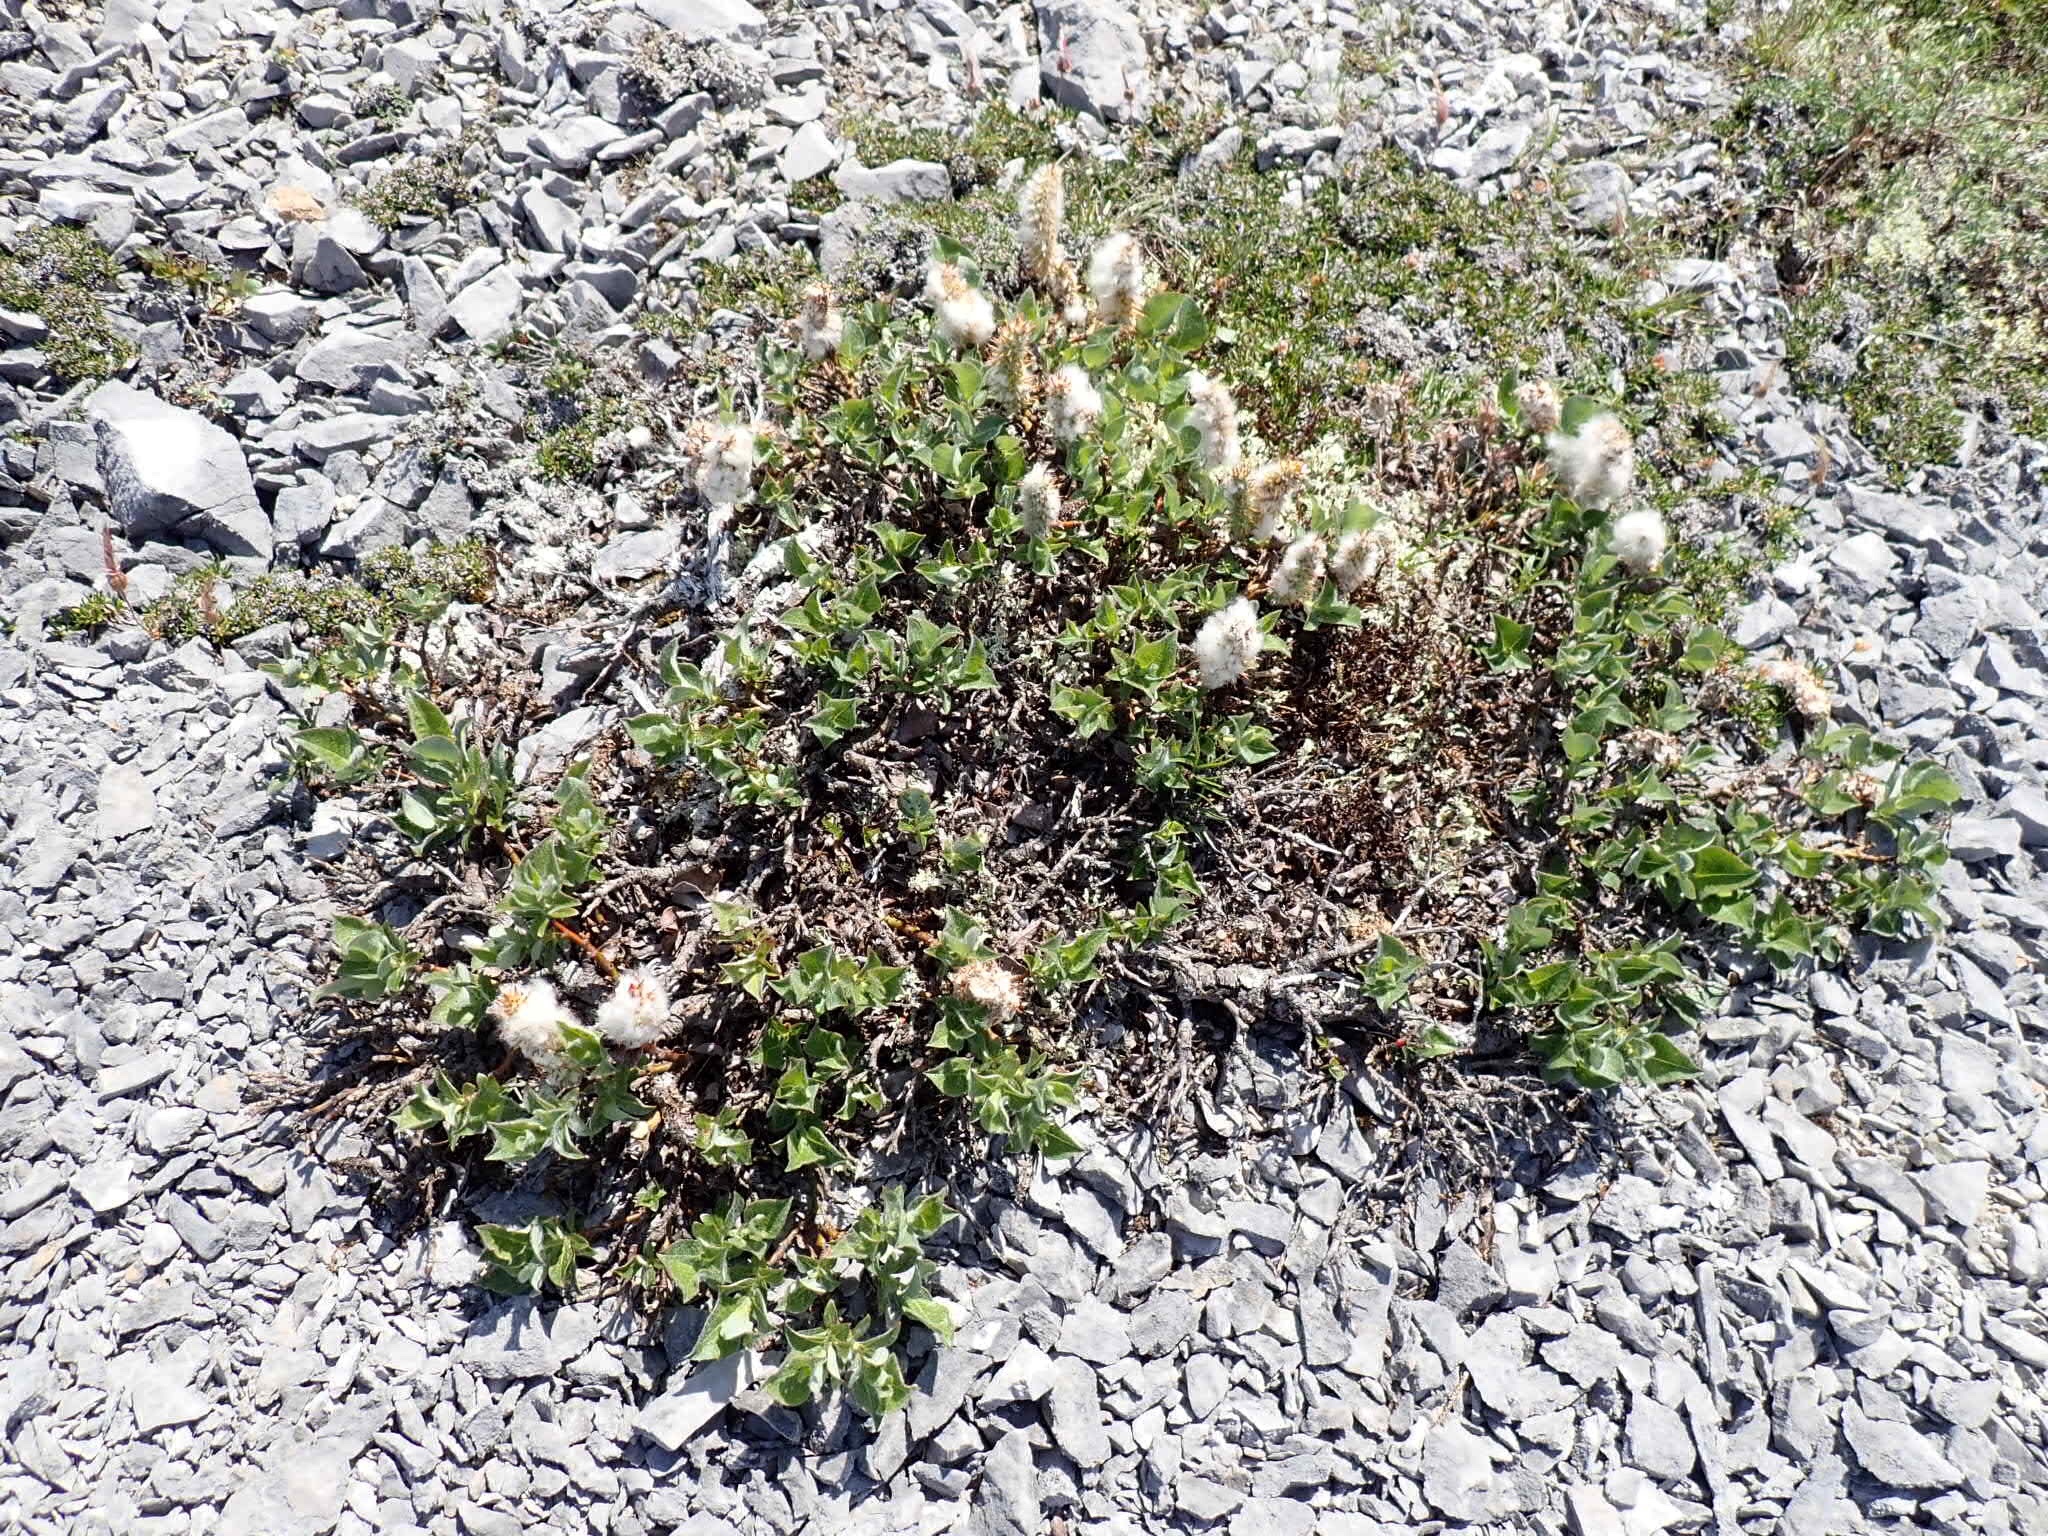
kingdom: Plantae
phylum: Tracheophyta
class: Magnoliopsida
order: Malpighiales
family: Salicaceae
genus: Salix
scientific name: Salix calcicola
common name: Calcareous willow
